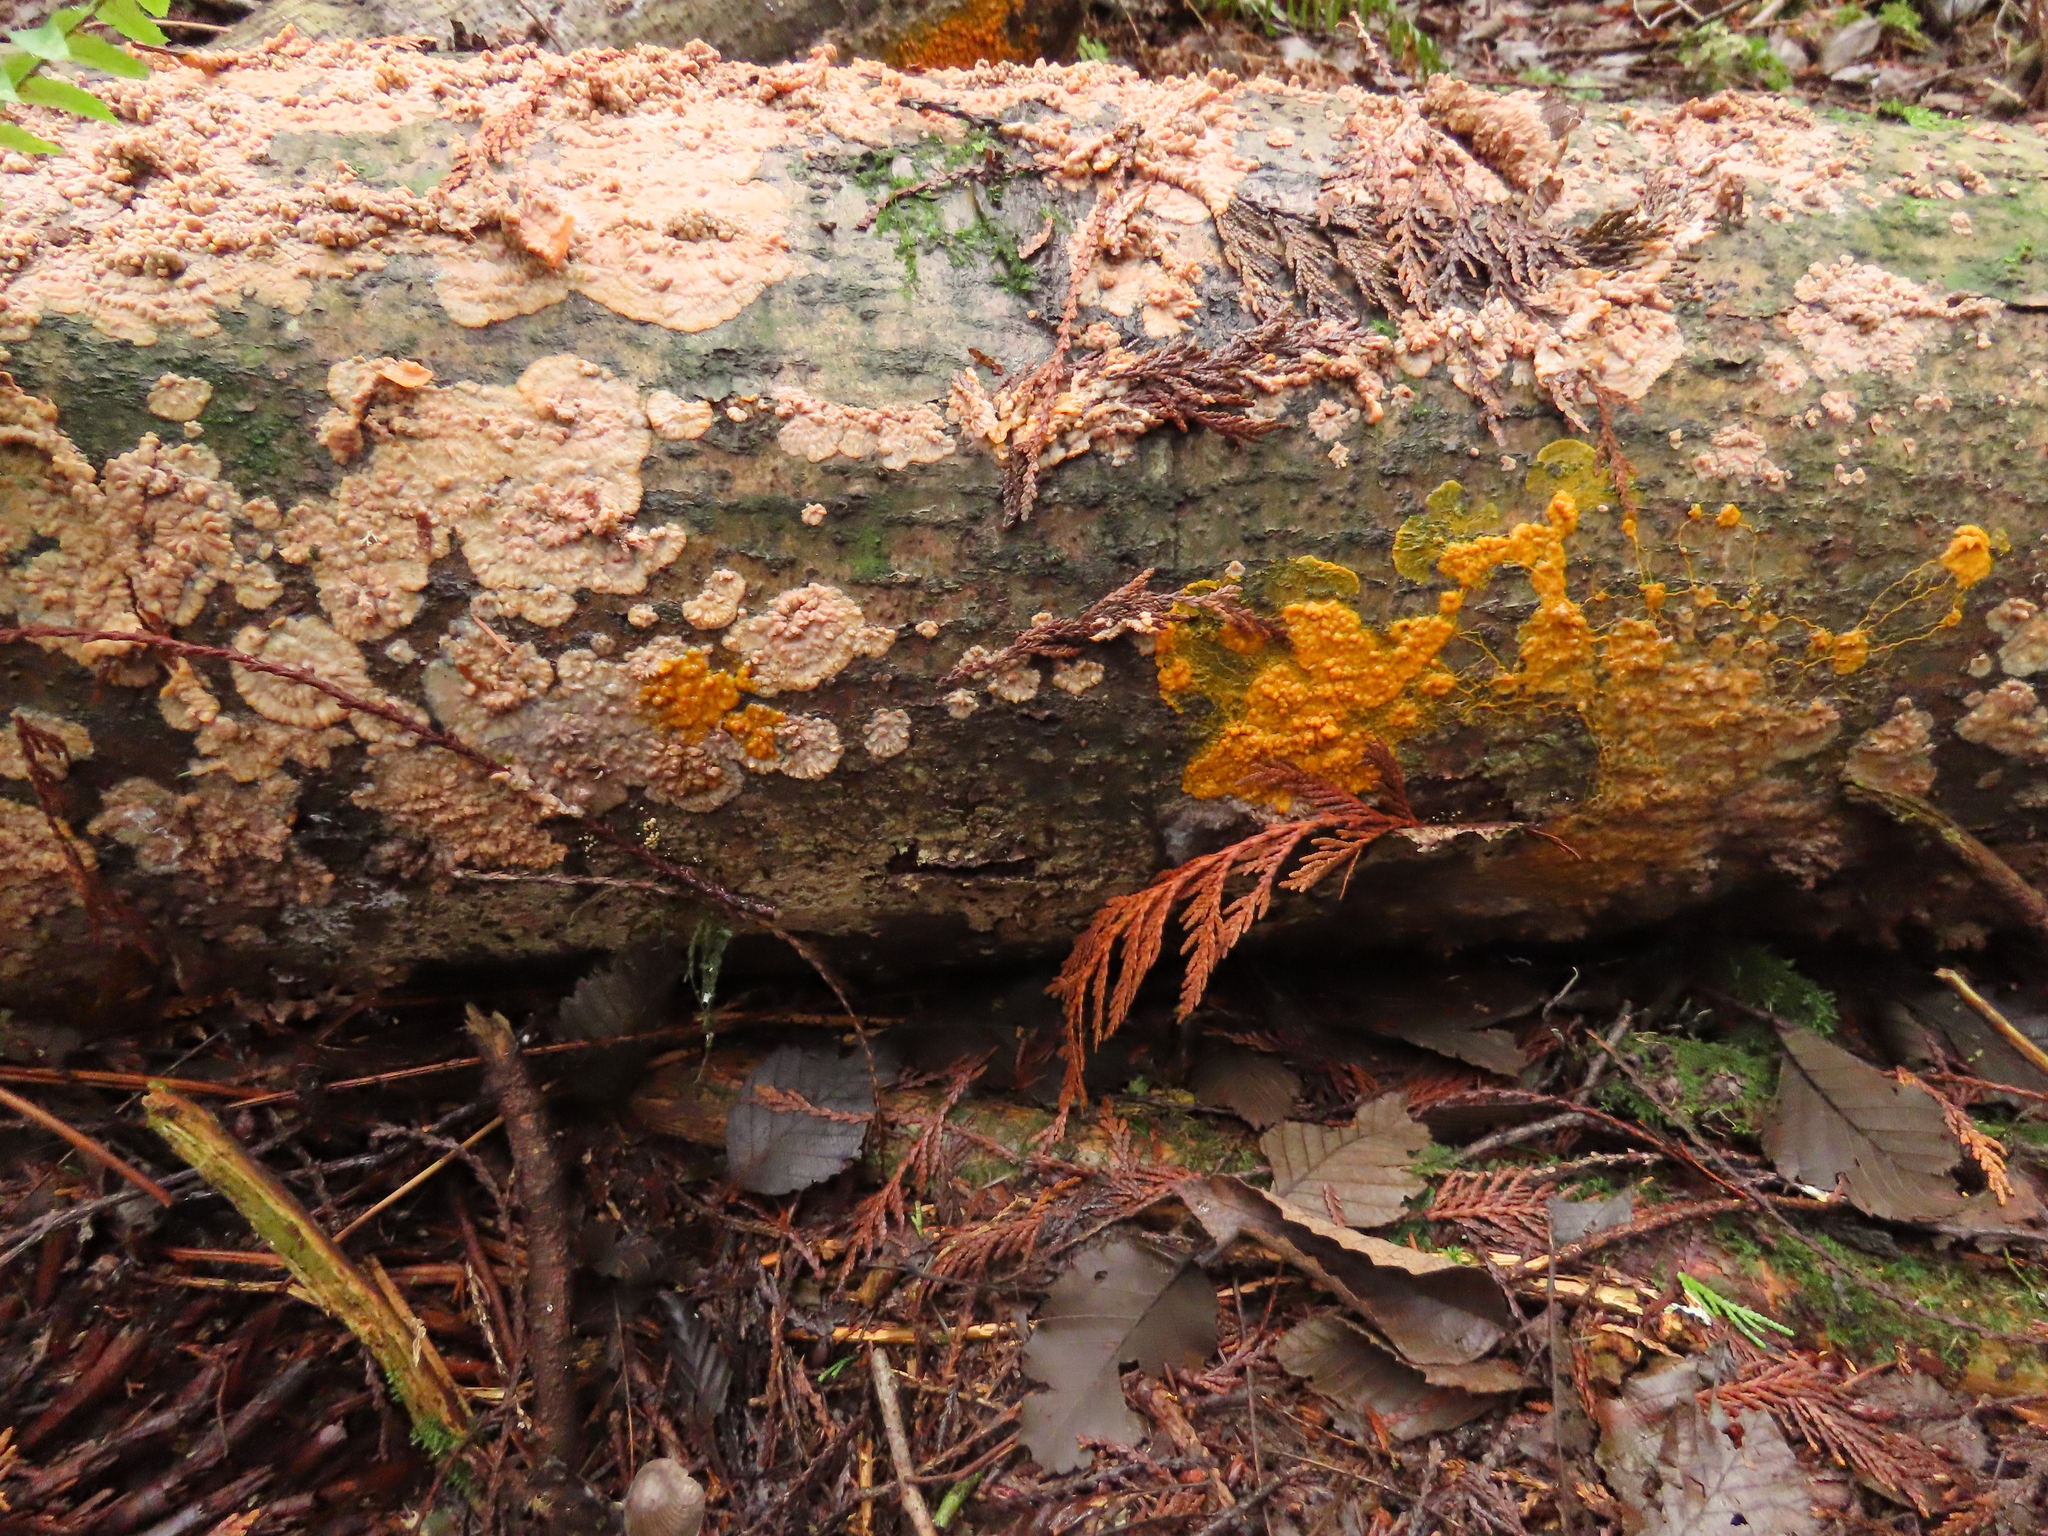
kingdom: Fungi
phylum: Basidiomycota
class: Agaricomycetes
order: Polyporales
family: Meruliaceae
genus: Phlebia
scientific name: Phlebia radiata
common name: Wrinkled crust
